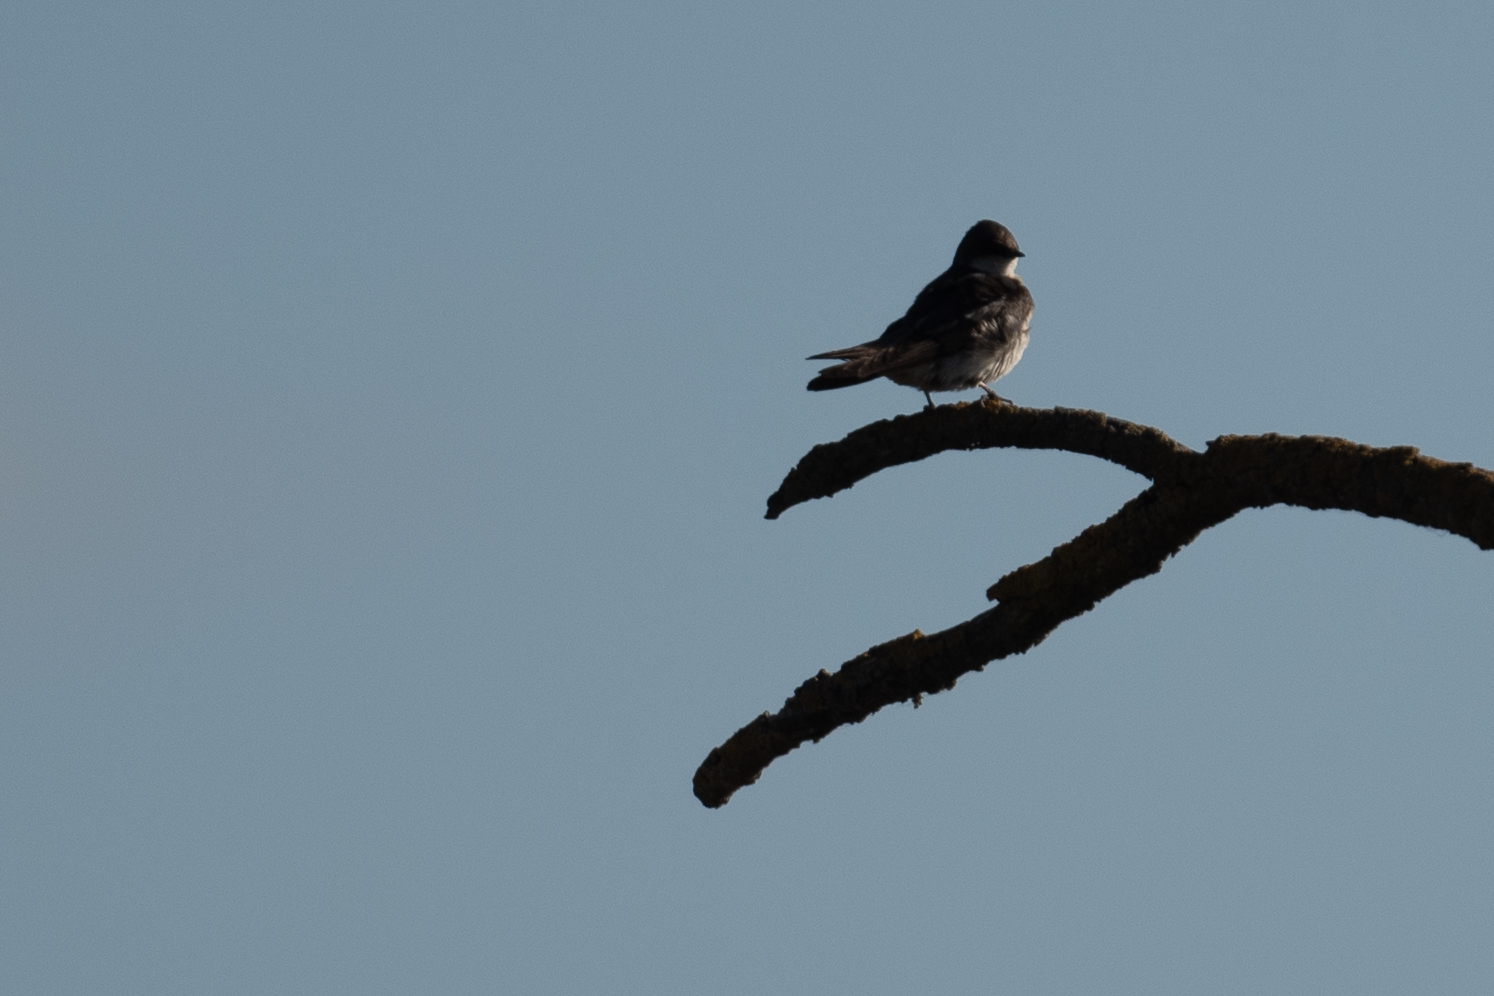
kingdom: Animalia
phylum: Chordata
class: Aves
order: Passeriformes
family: Hirundinidae
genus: Tachycineta
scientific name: Tachycineta bicolor
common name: Tree swallow
